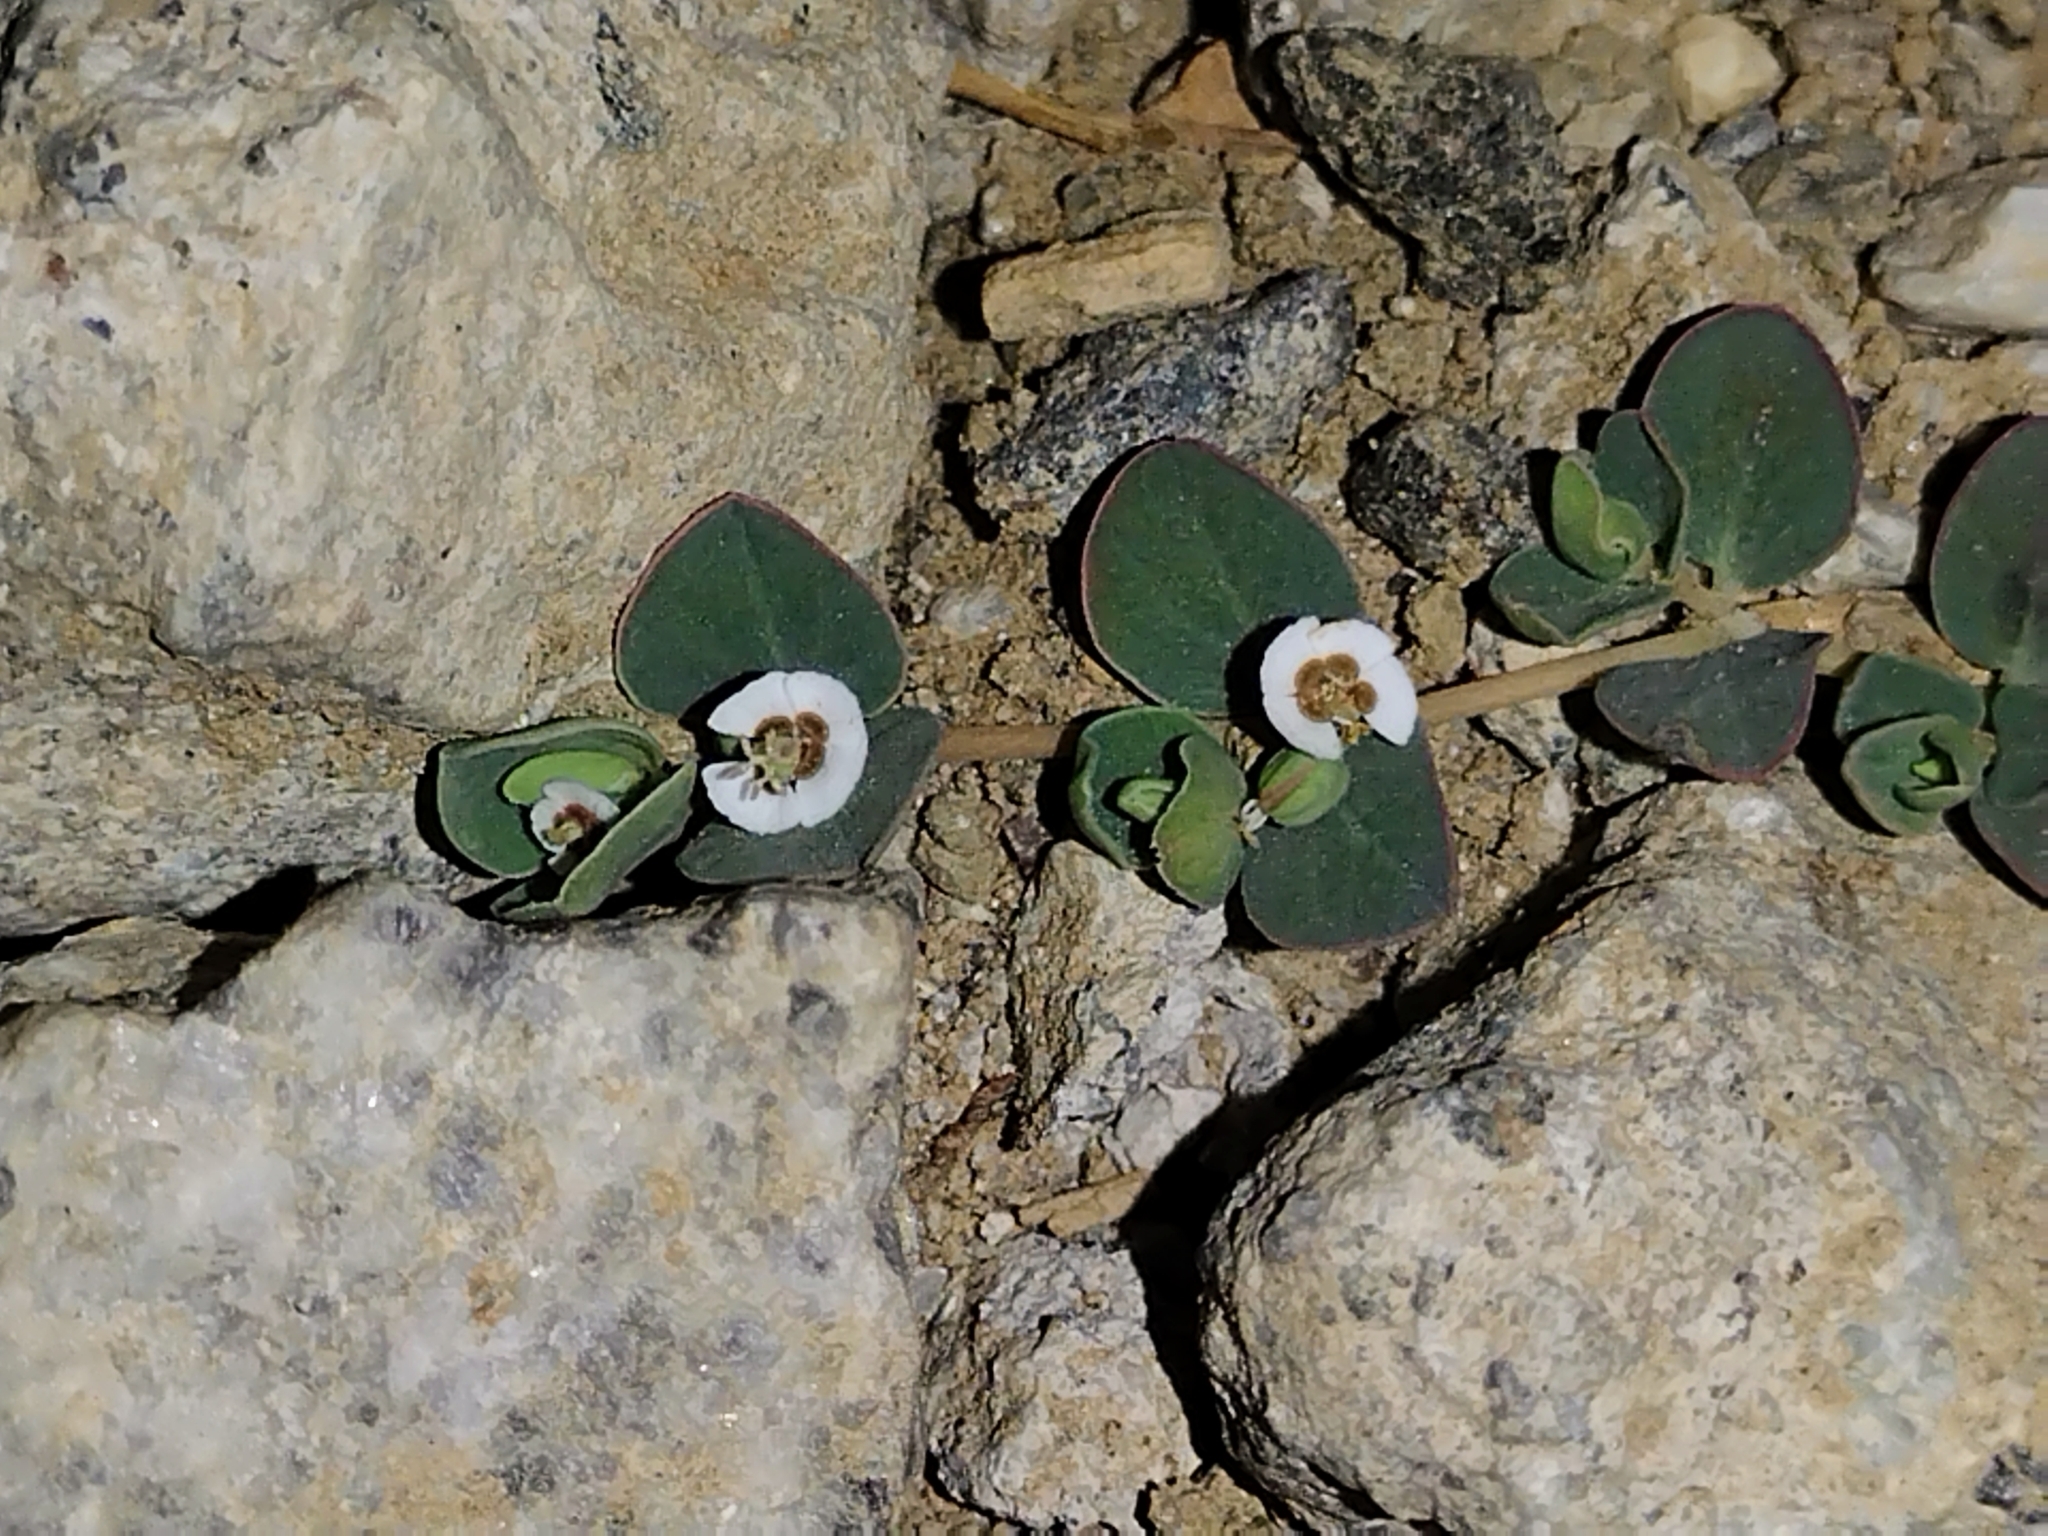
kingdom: Plantae
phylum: Tracheophyta
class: Magnoliopsida
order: Malpighiales
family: Euphorbiaceae
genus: Euphorbia
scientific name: Euphorbia albomarginata
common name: Whitemargin sandmat
